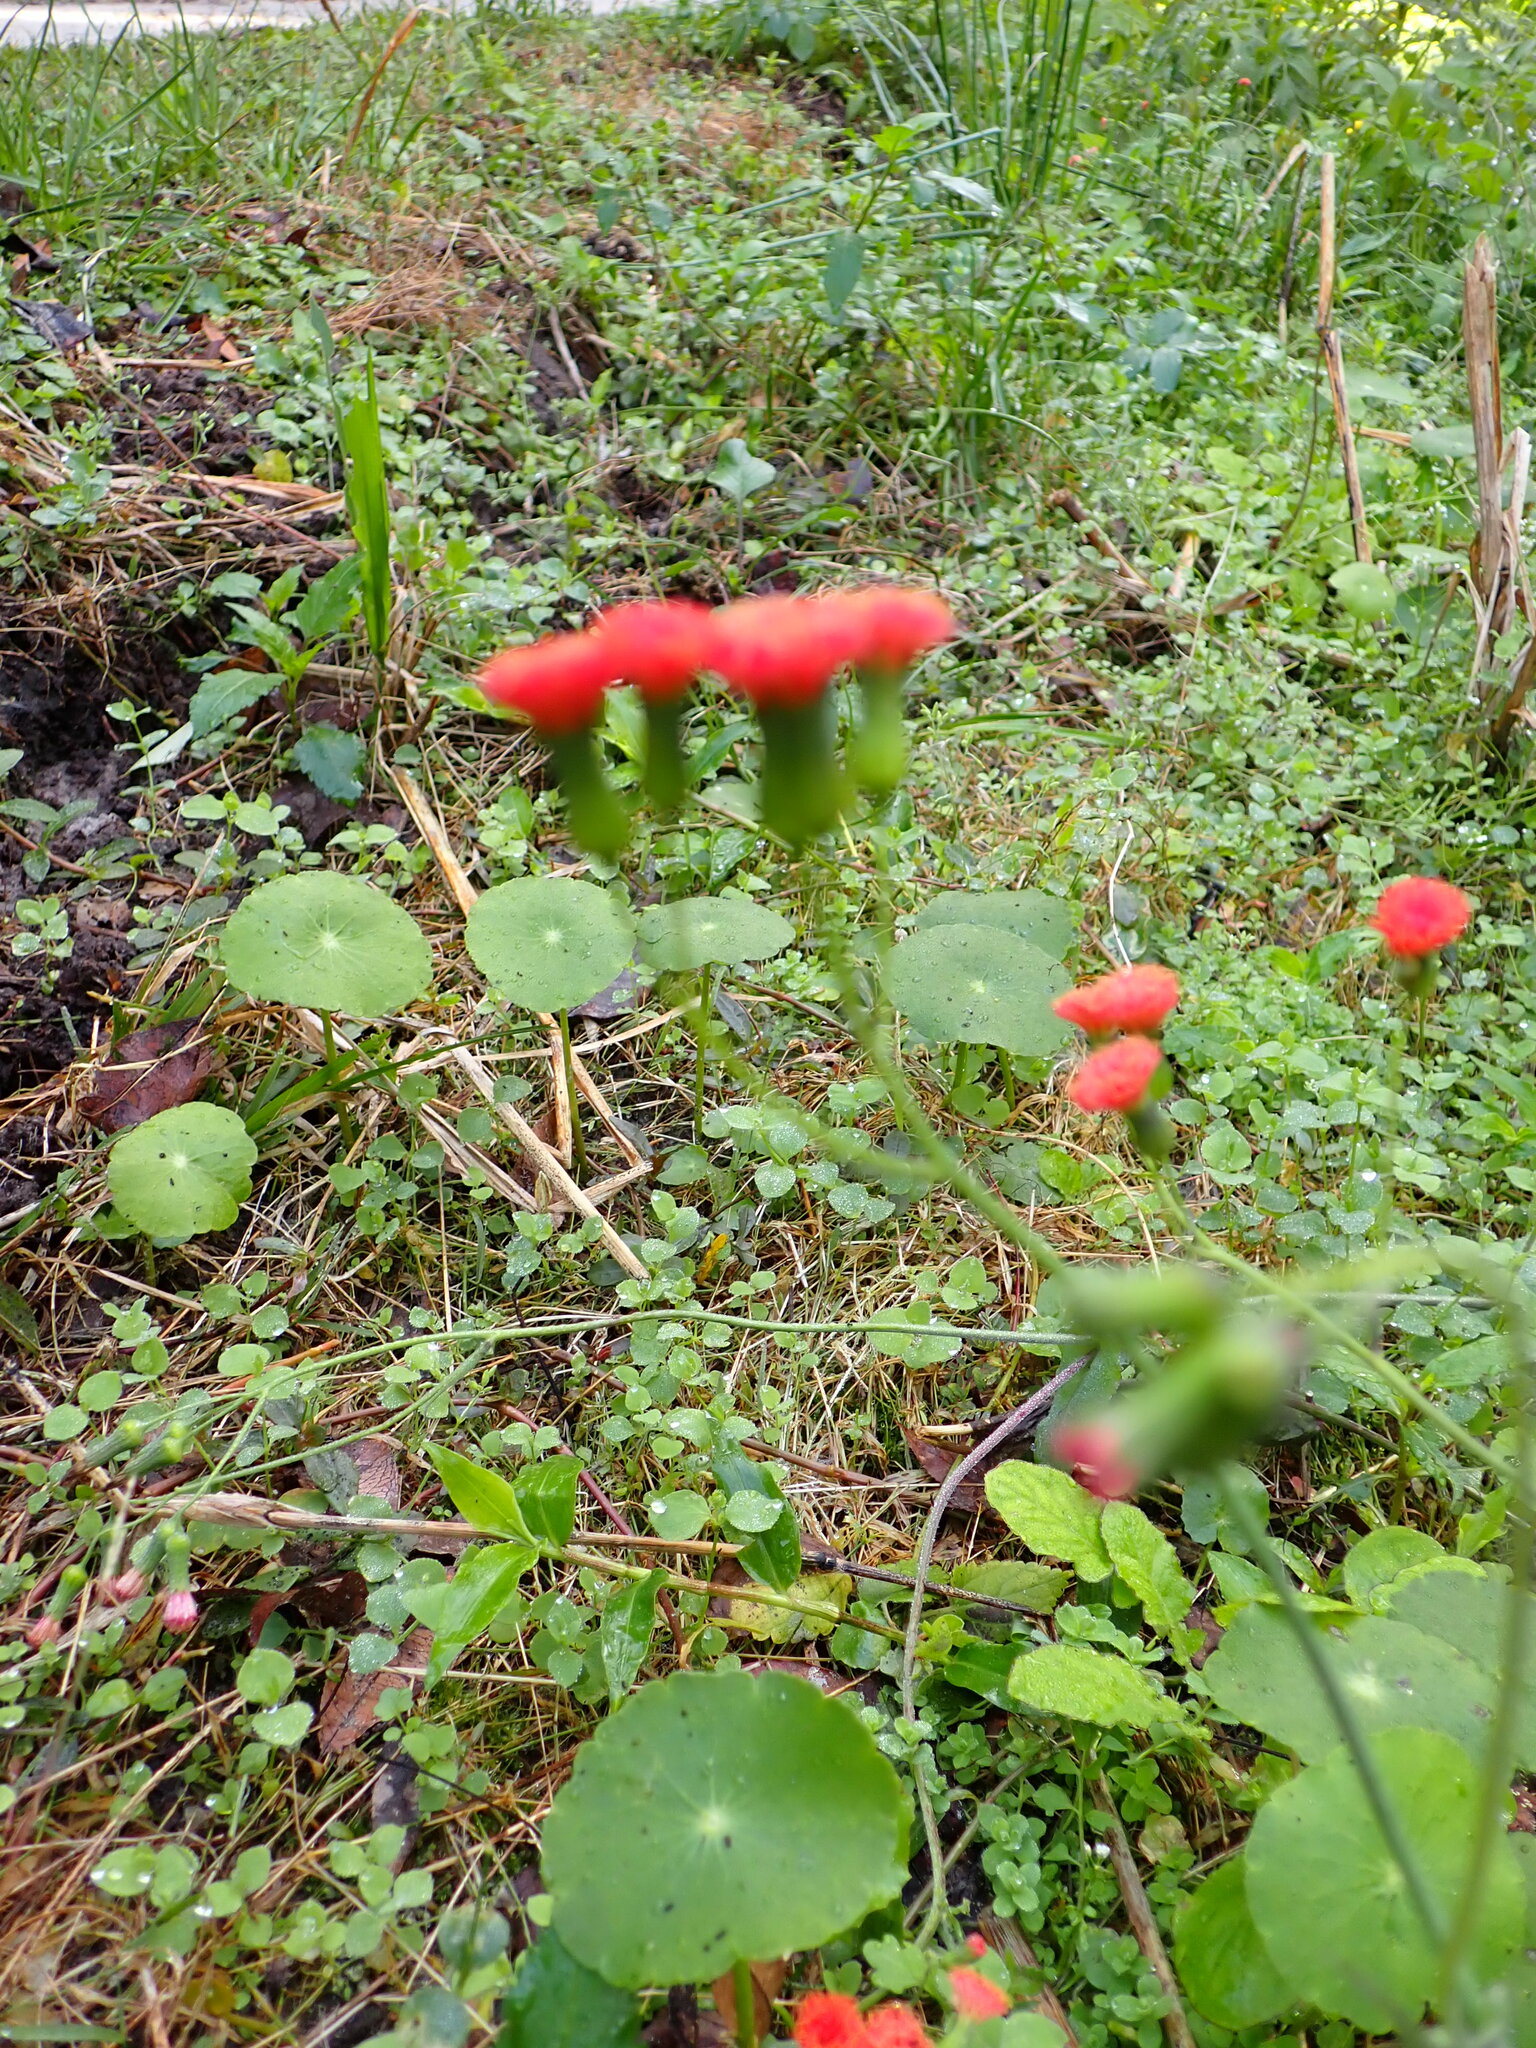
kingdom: Plantae
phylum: Tracheophyta
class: Magnoliopsida
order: Asterales
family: Asteraceae
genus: Emilia
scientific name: Emilia fosbergii
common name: Florida tasselflower
